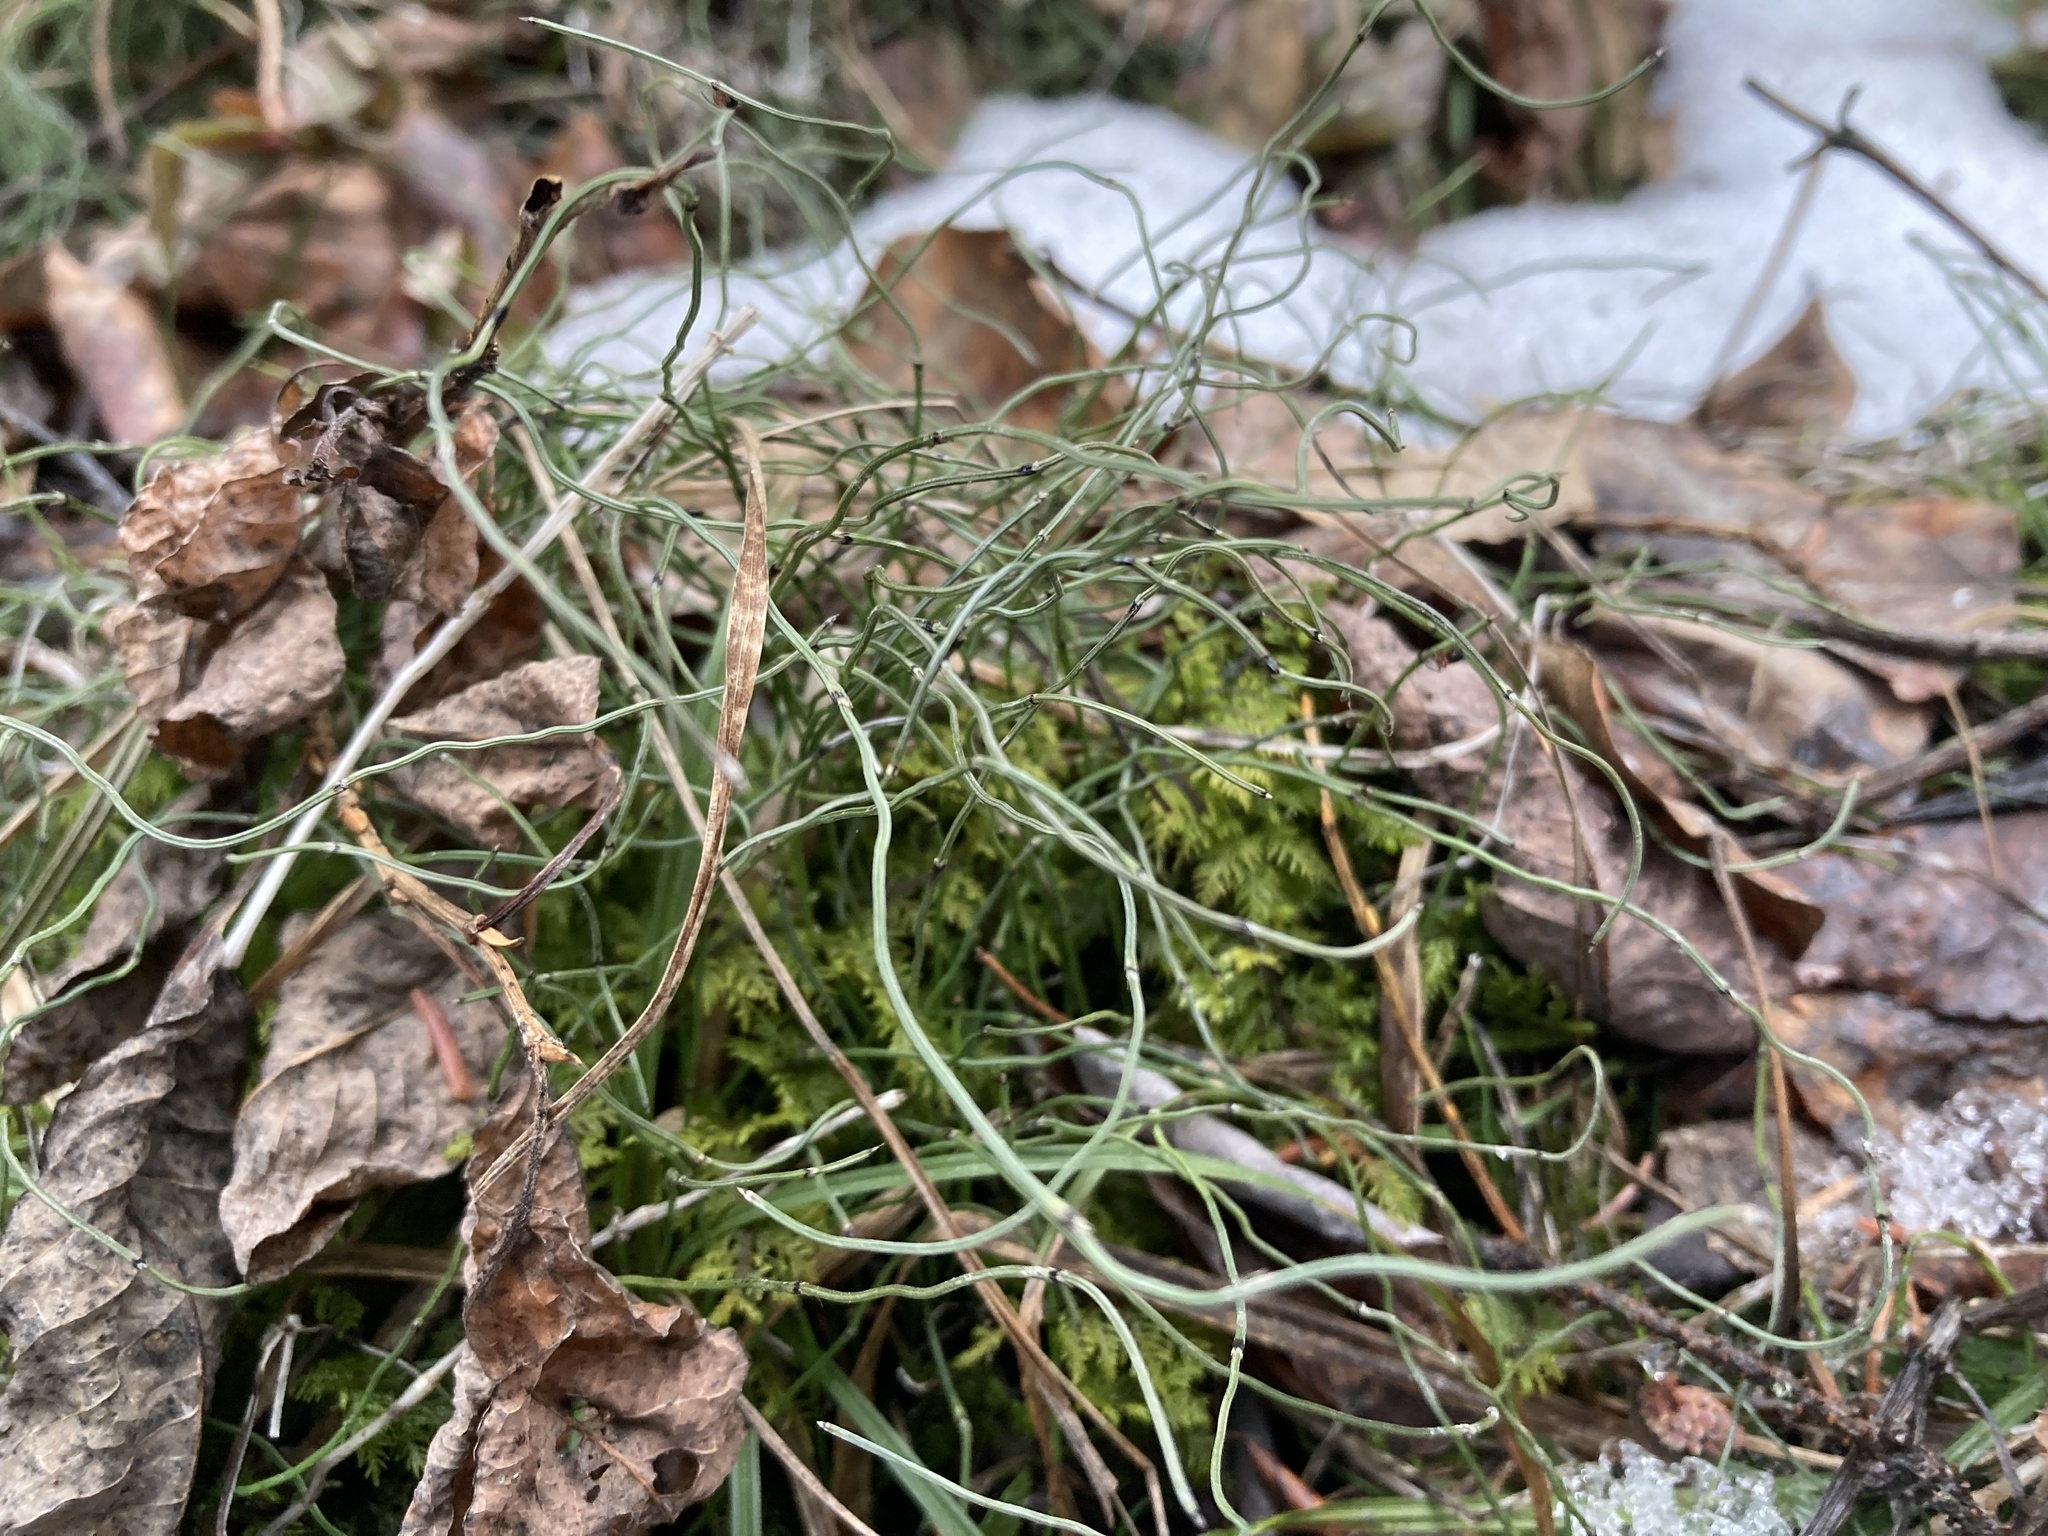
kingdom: Plantae
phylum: Tracheophyta
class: Polypodiopsida
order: Equisetales
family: Equisetaceae
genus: Equisetum
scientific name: Equisetum scirpoides
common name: Delicate horsetail
